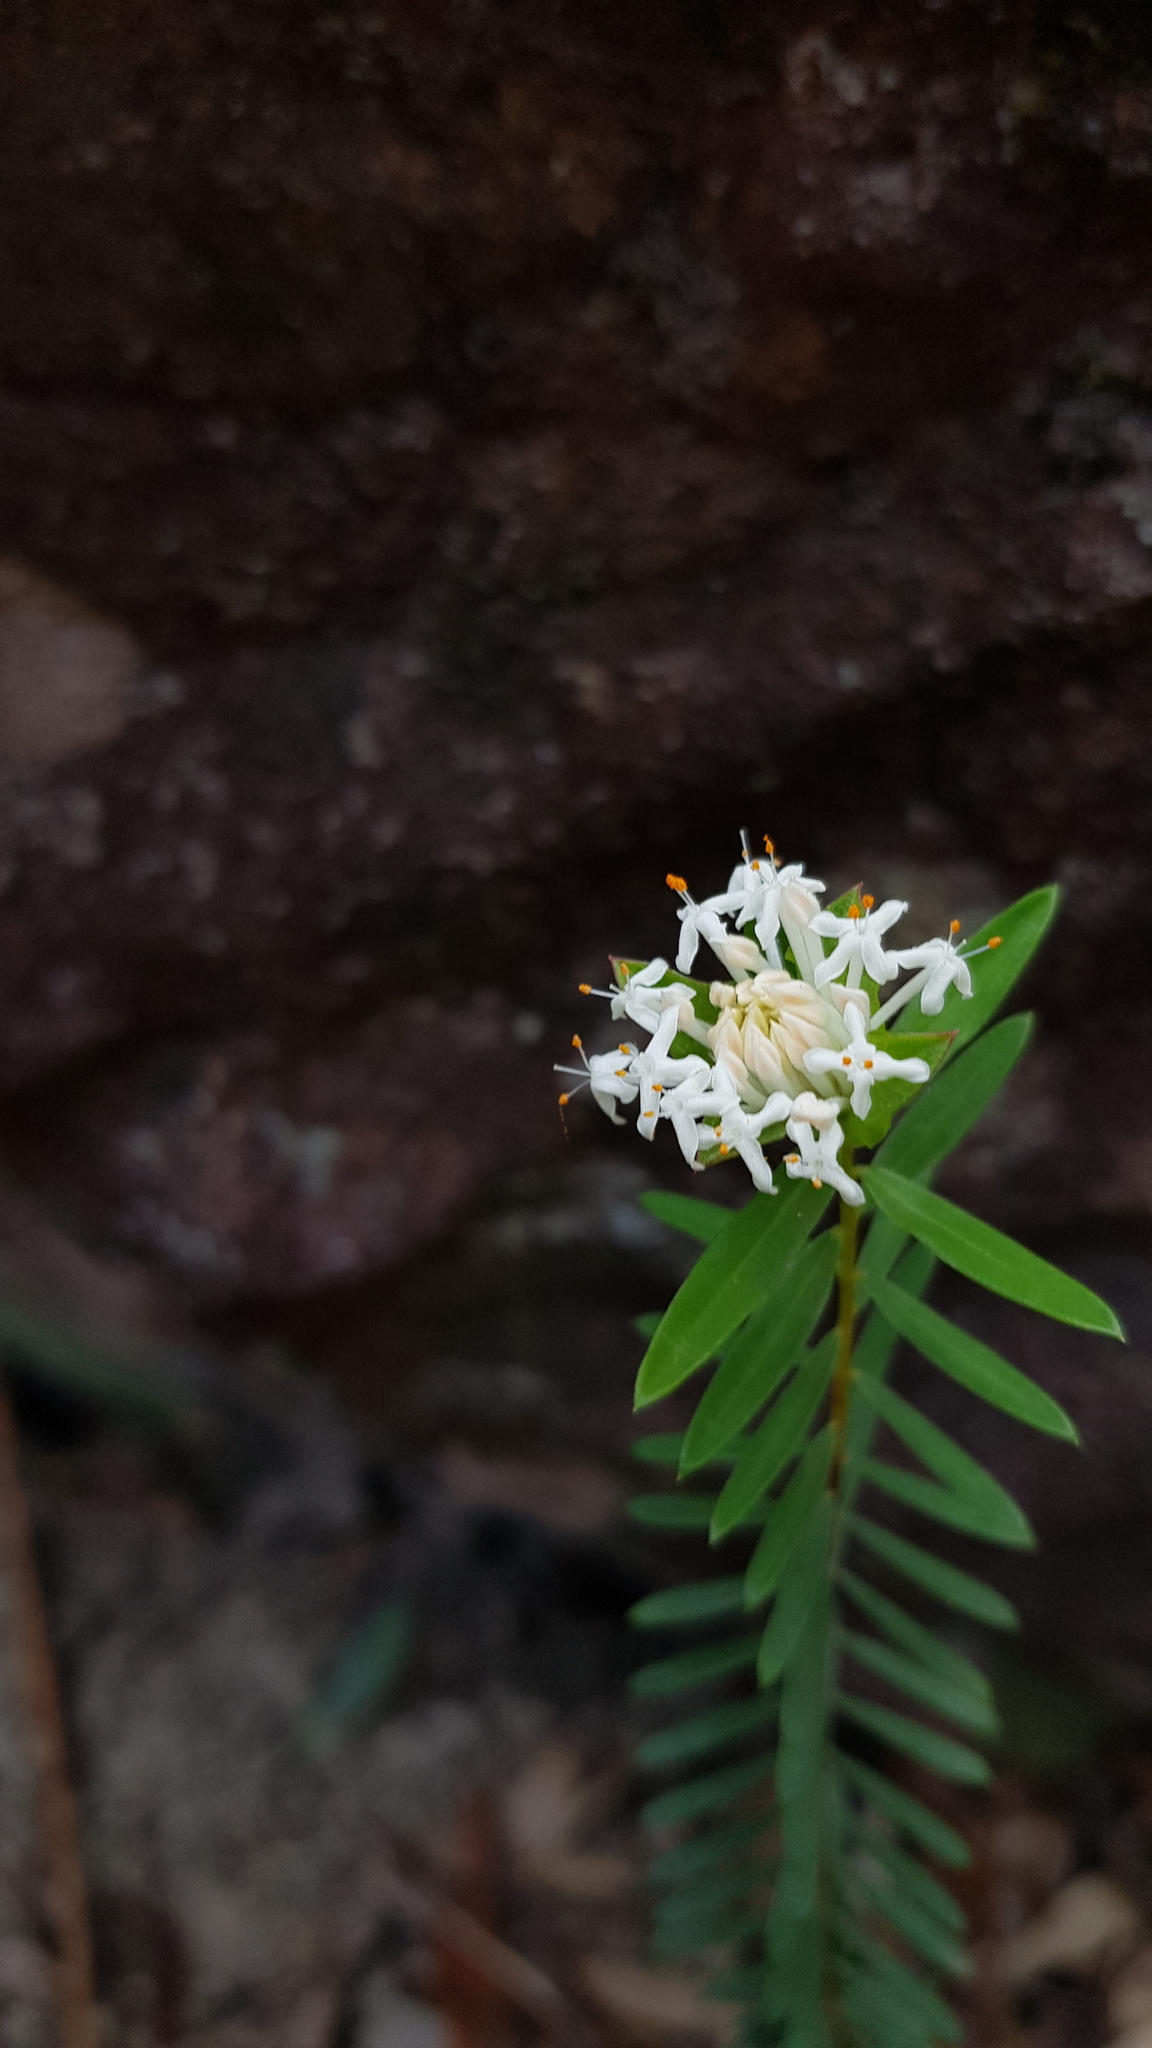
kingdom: Plantae
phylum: Tracheophyta
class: Magnoliopsida
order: Malvales
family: Thymelaeaceae
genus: Pimelea
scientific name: Pimelea linifolia
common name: Queen-of-the-bush
